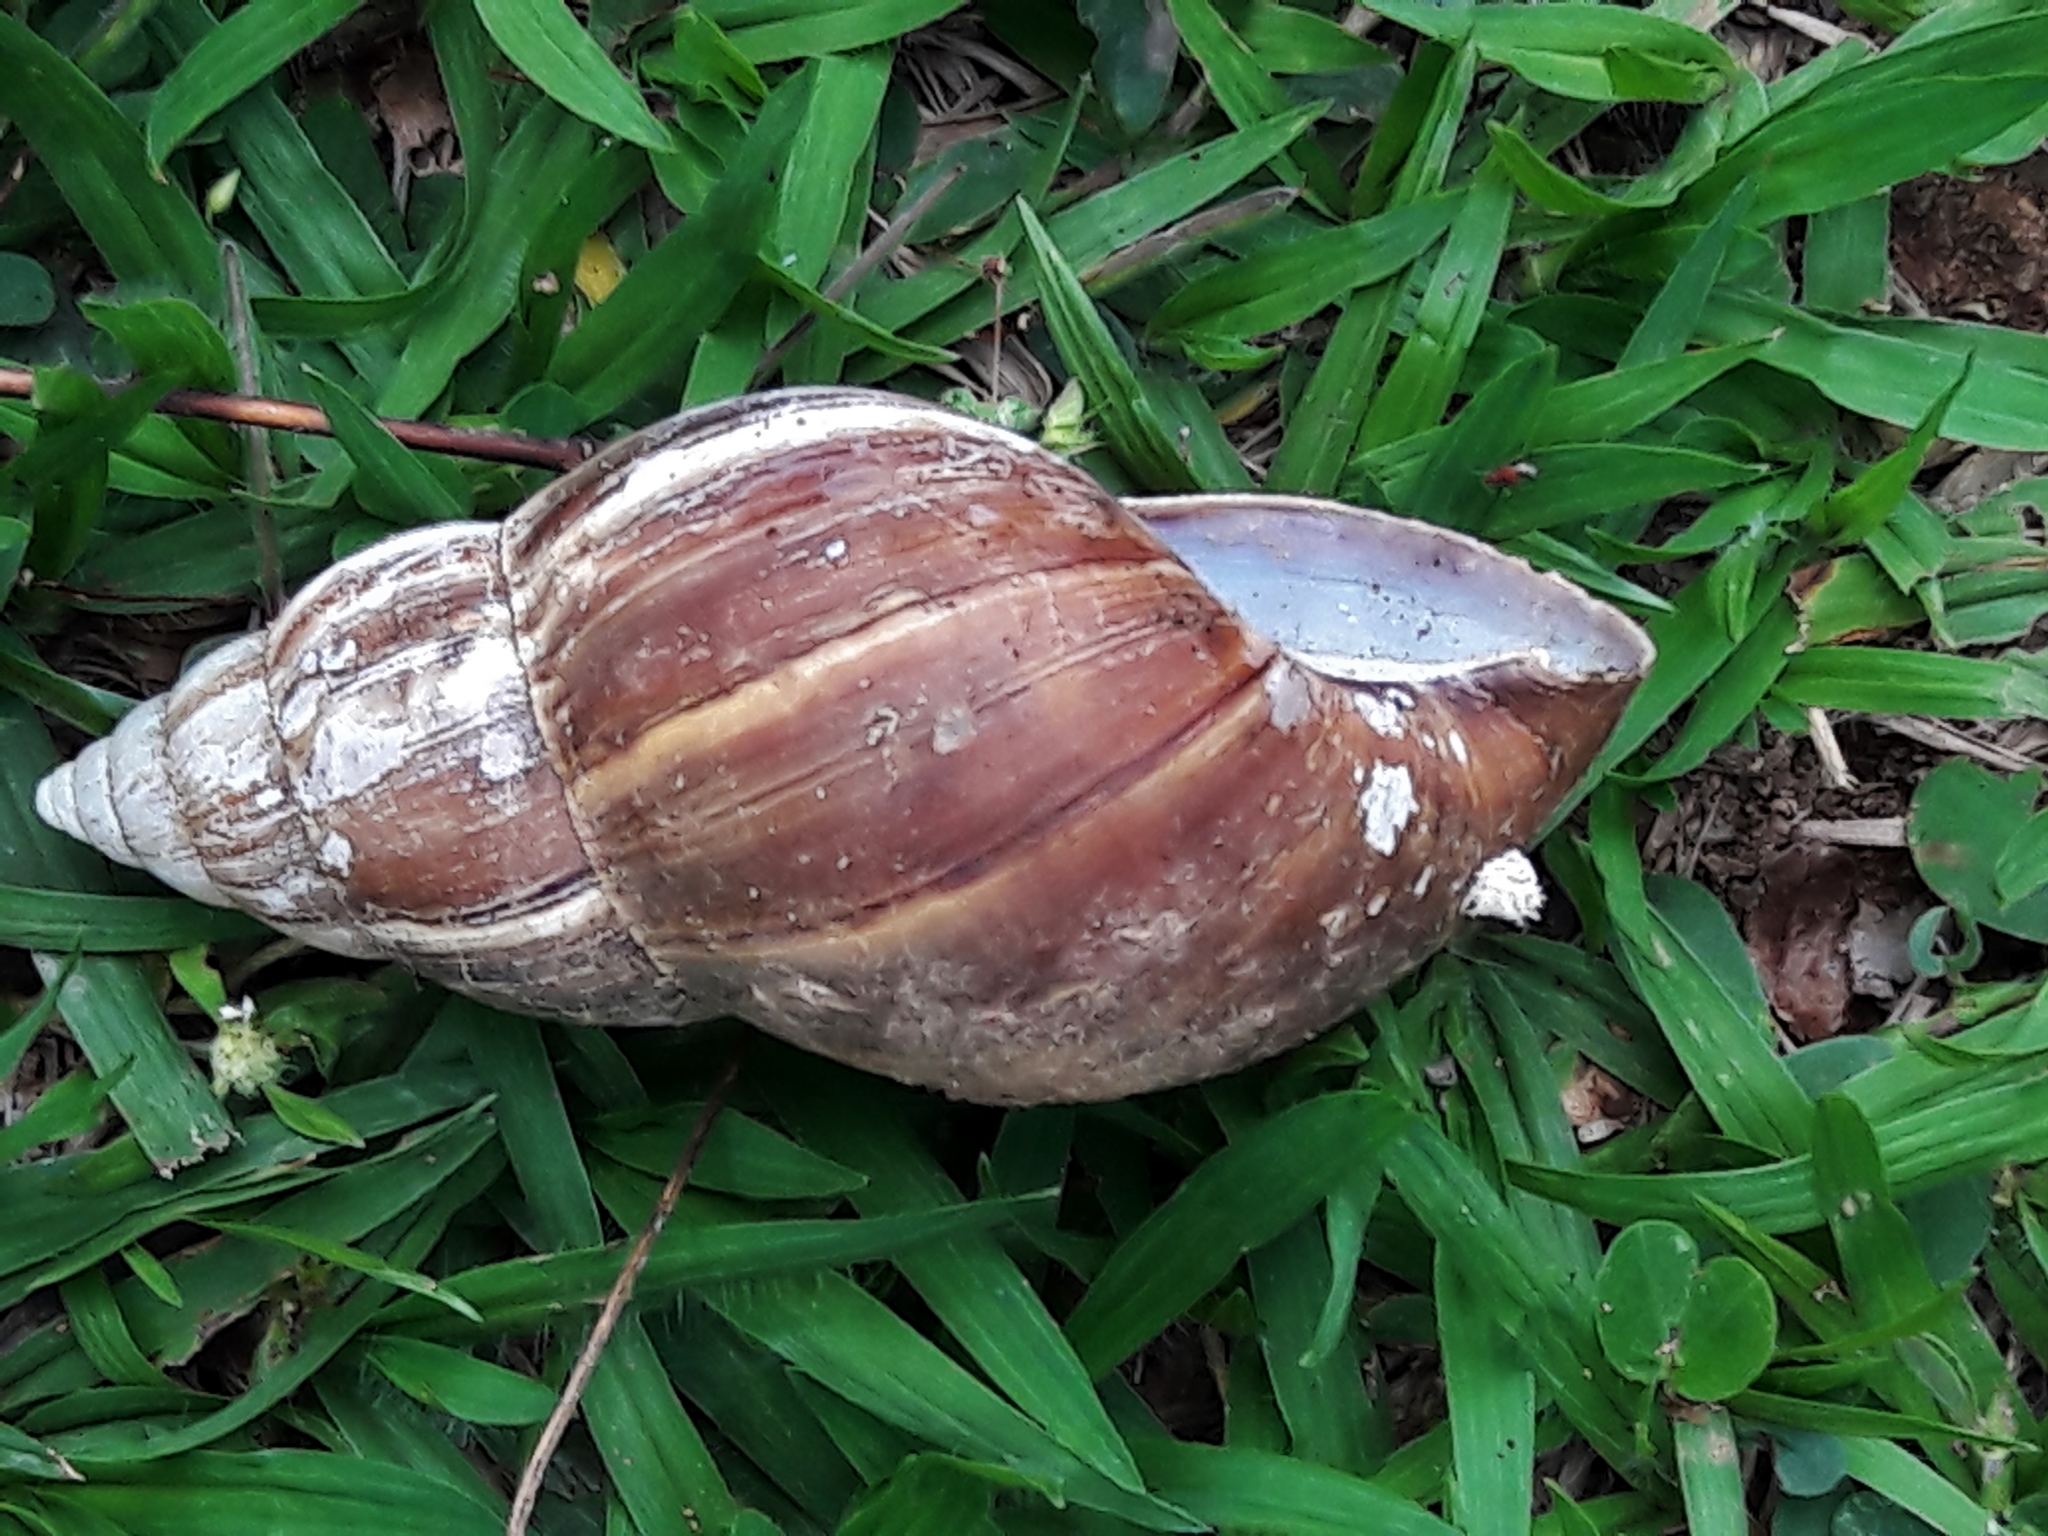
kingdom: Animalia
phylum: Mollusca
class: Gastropoda
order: Stylommatophora
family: Achatinidae
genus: Lissachatina
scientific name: Lissachatina fulica
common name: Giant african snail
